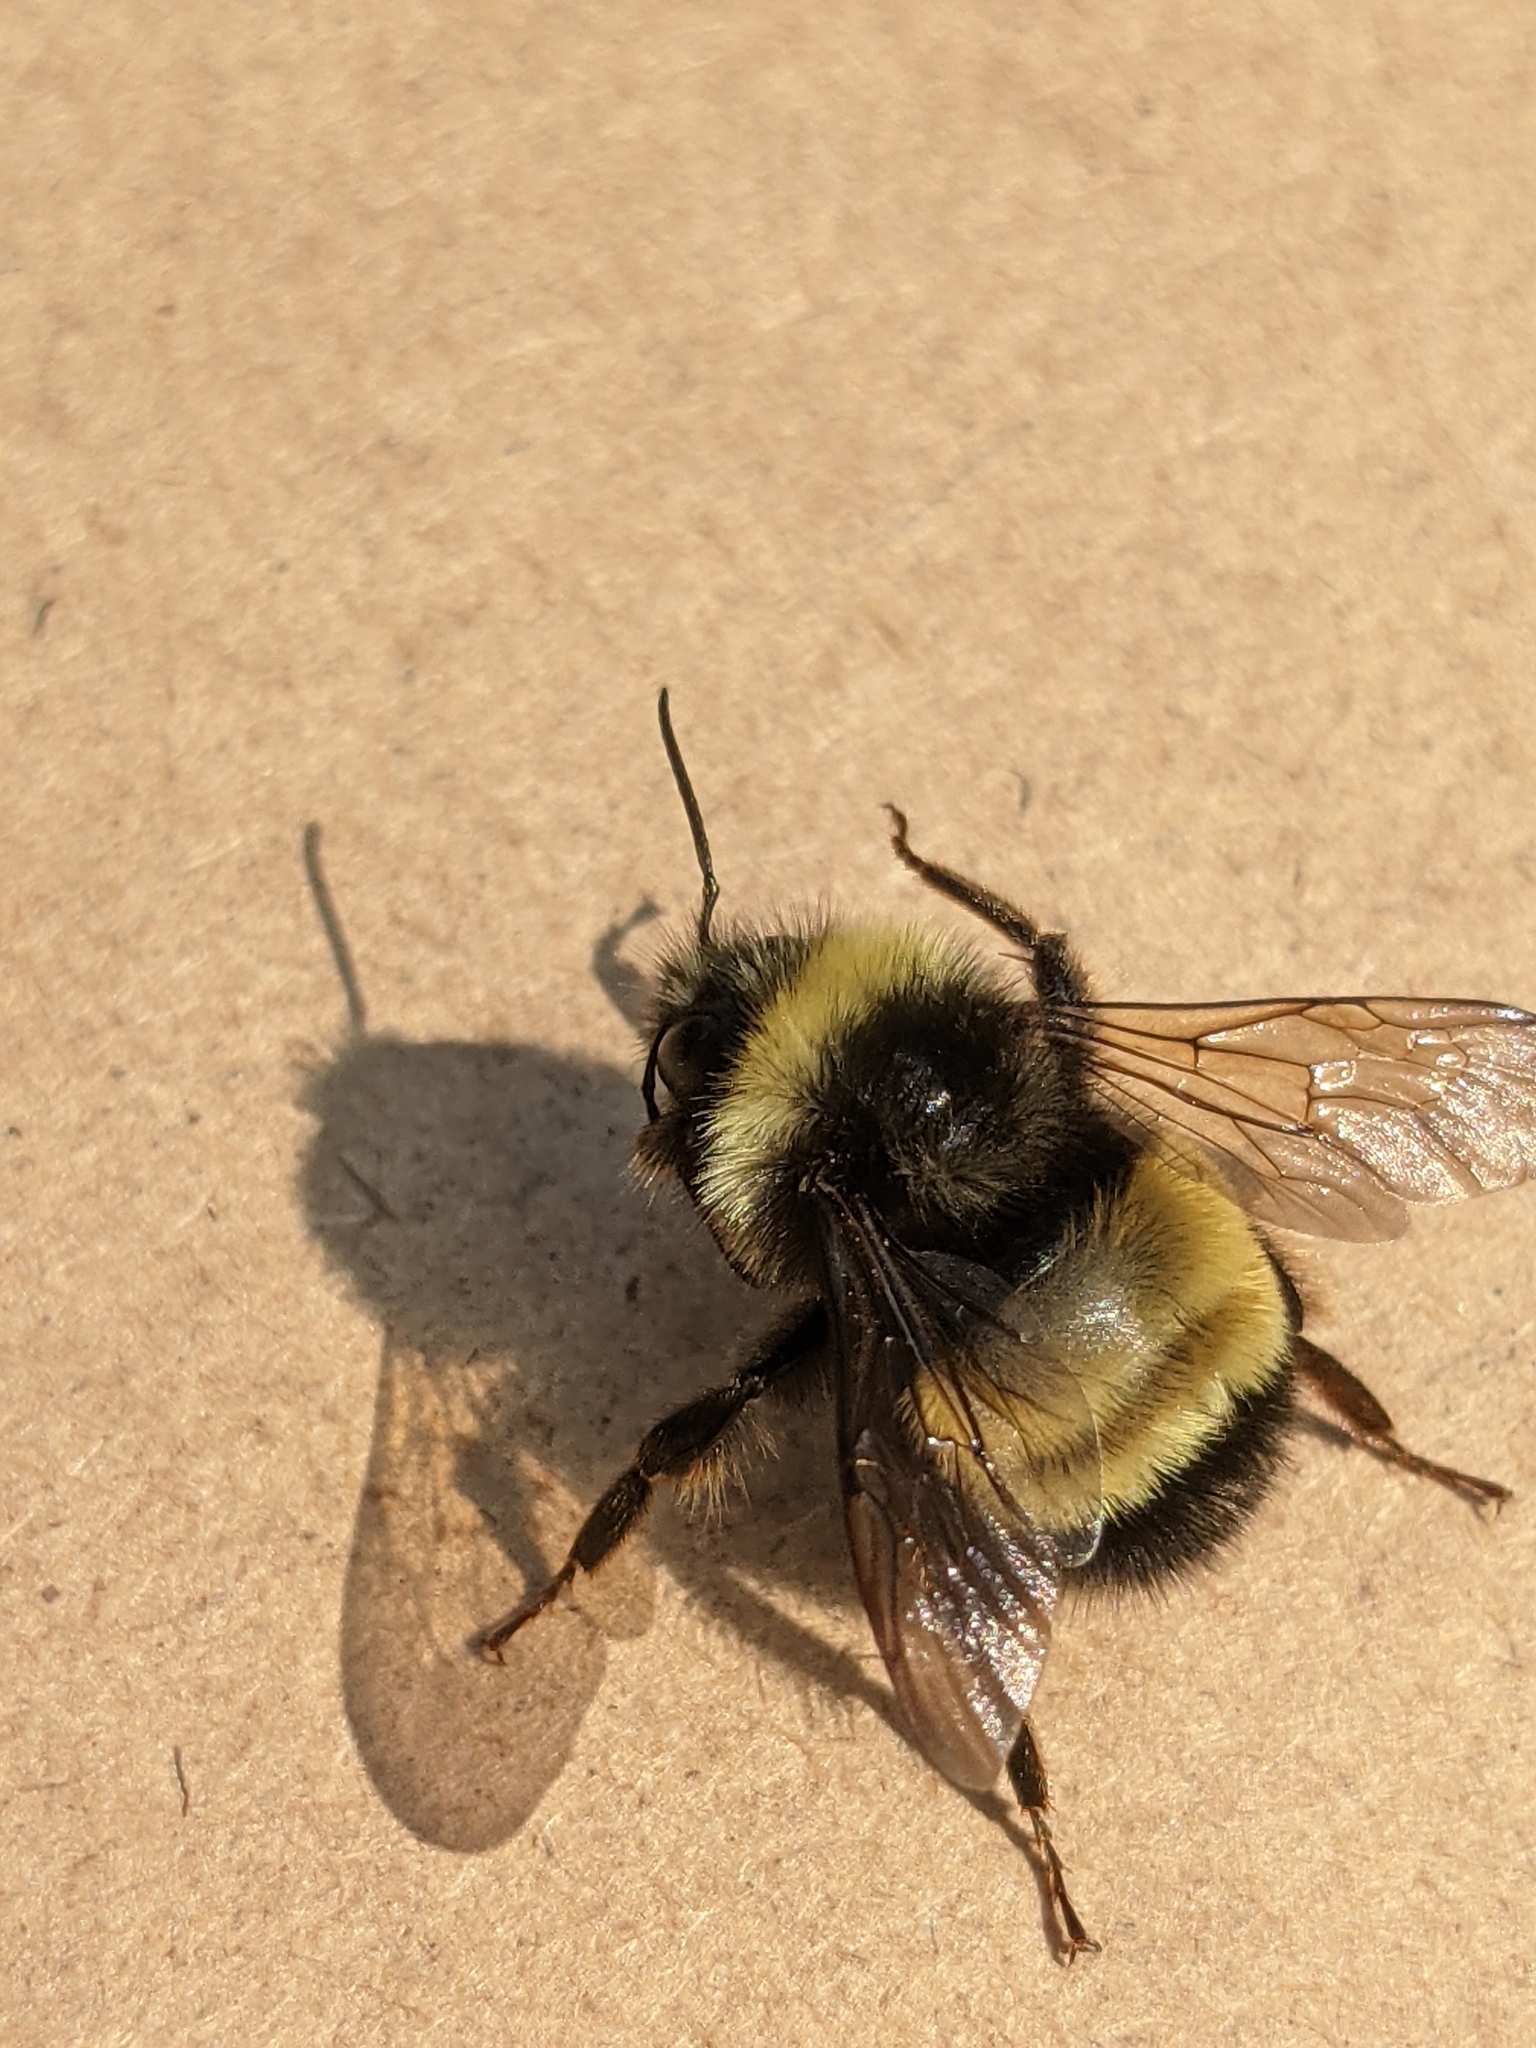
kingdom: Animalia
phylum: Arthropoda
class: Insecta
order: Hymenoptera
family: Apidae
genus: Bombus
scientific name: Bombus terricola
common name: Yellow-banded bumble bee
